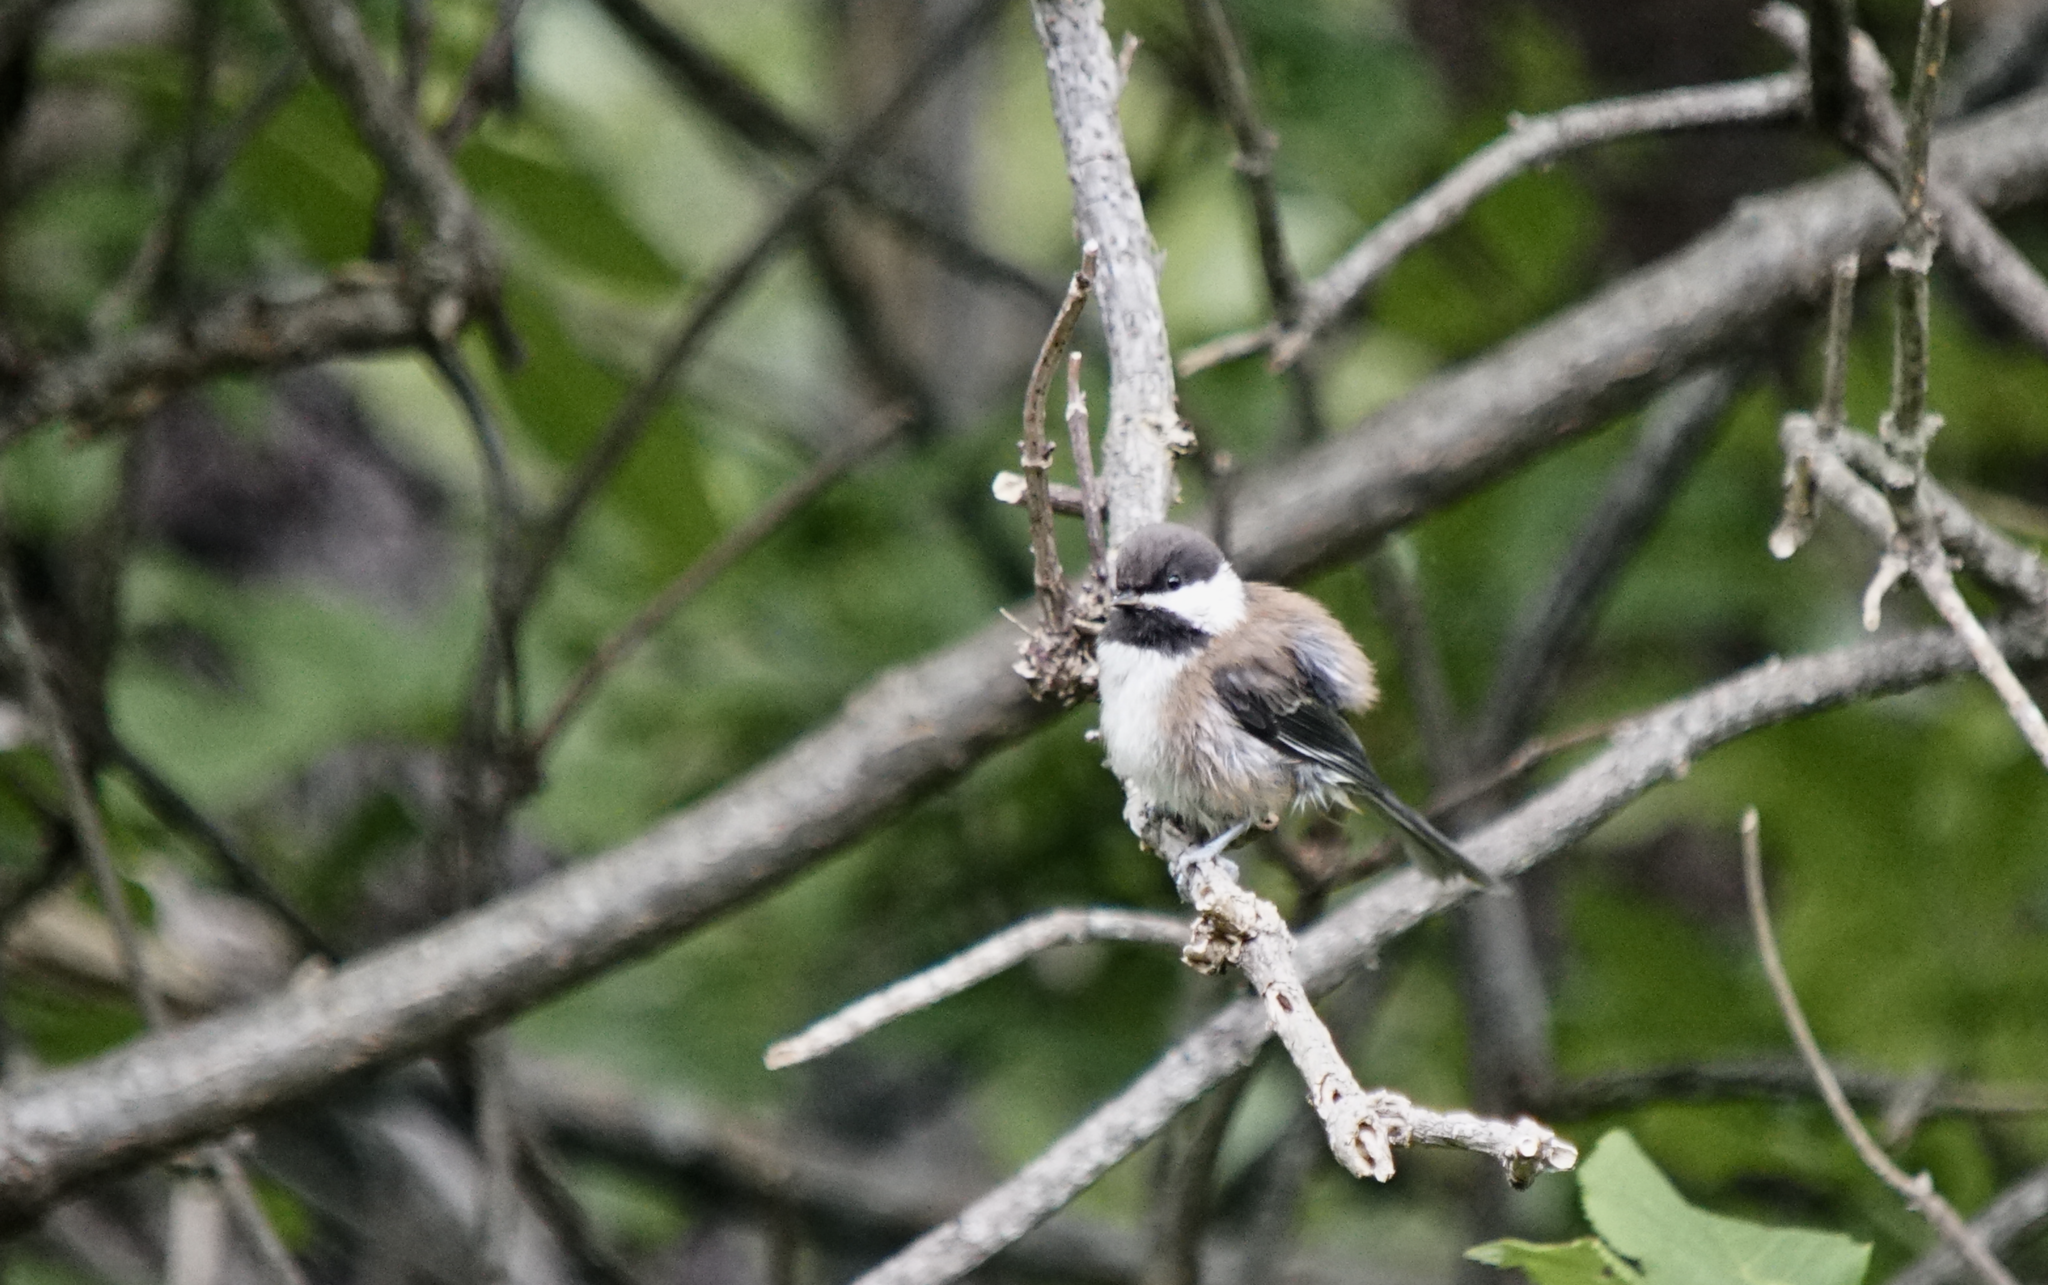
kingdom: Animalia
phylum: Chordata
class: Aves
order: Passeriformes
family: Paridae
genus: Poecile
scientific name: Poecile rufescens
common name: Chestnut-backed chickadee
